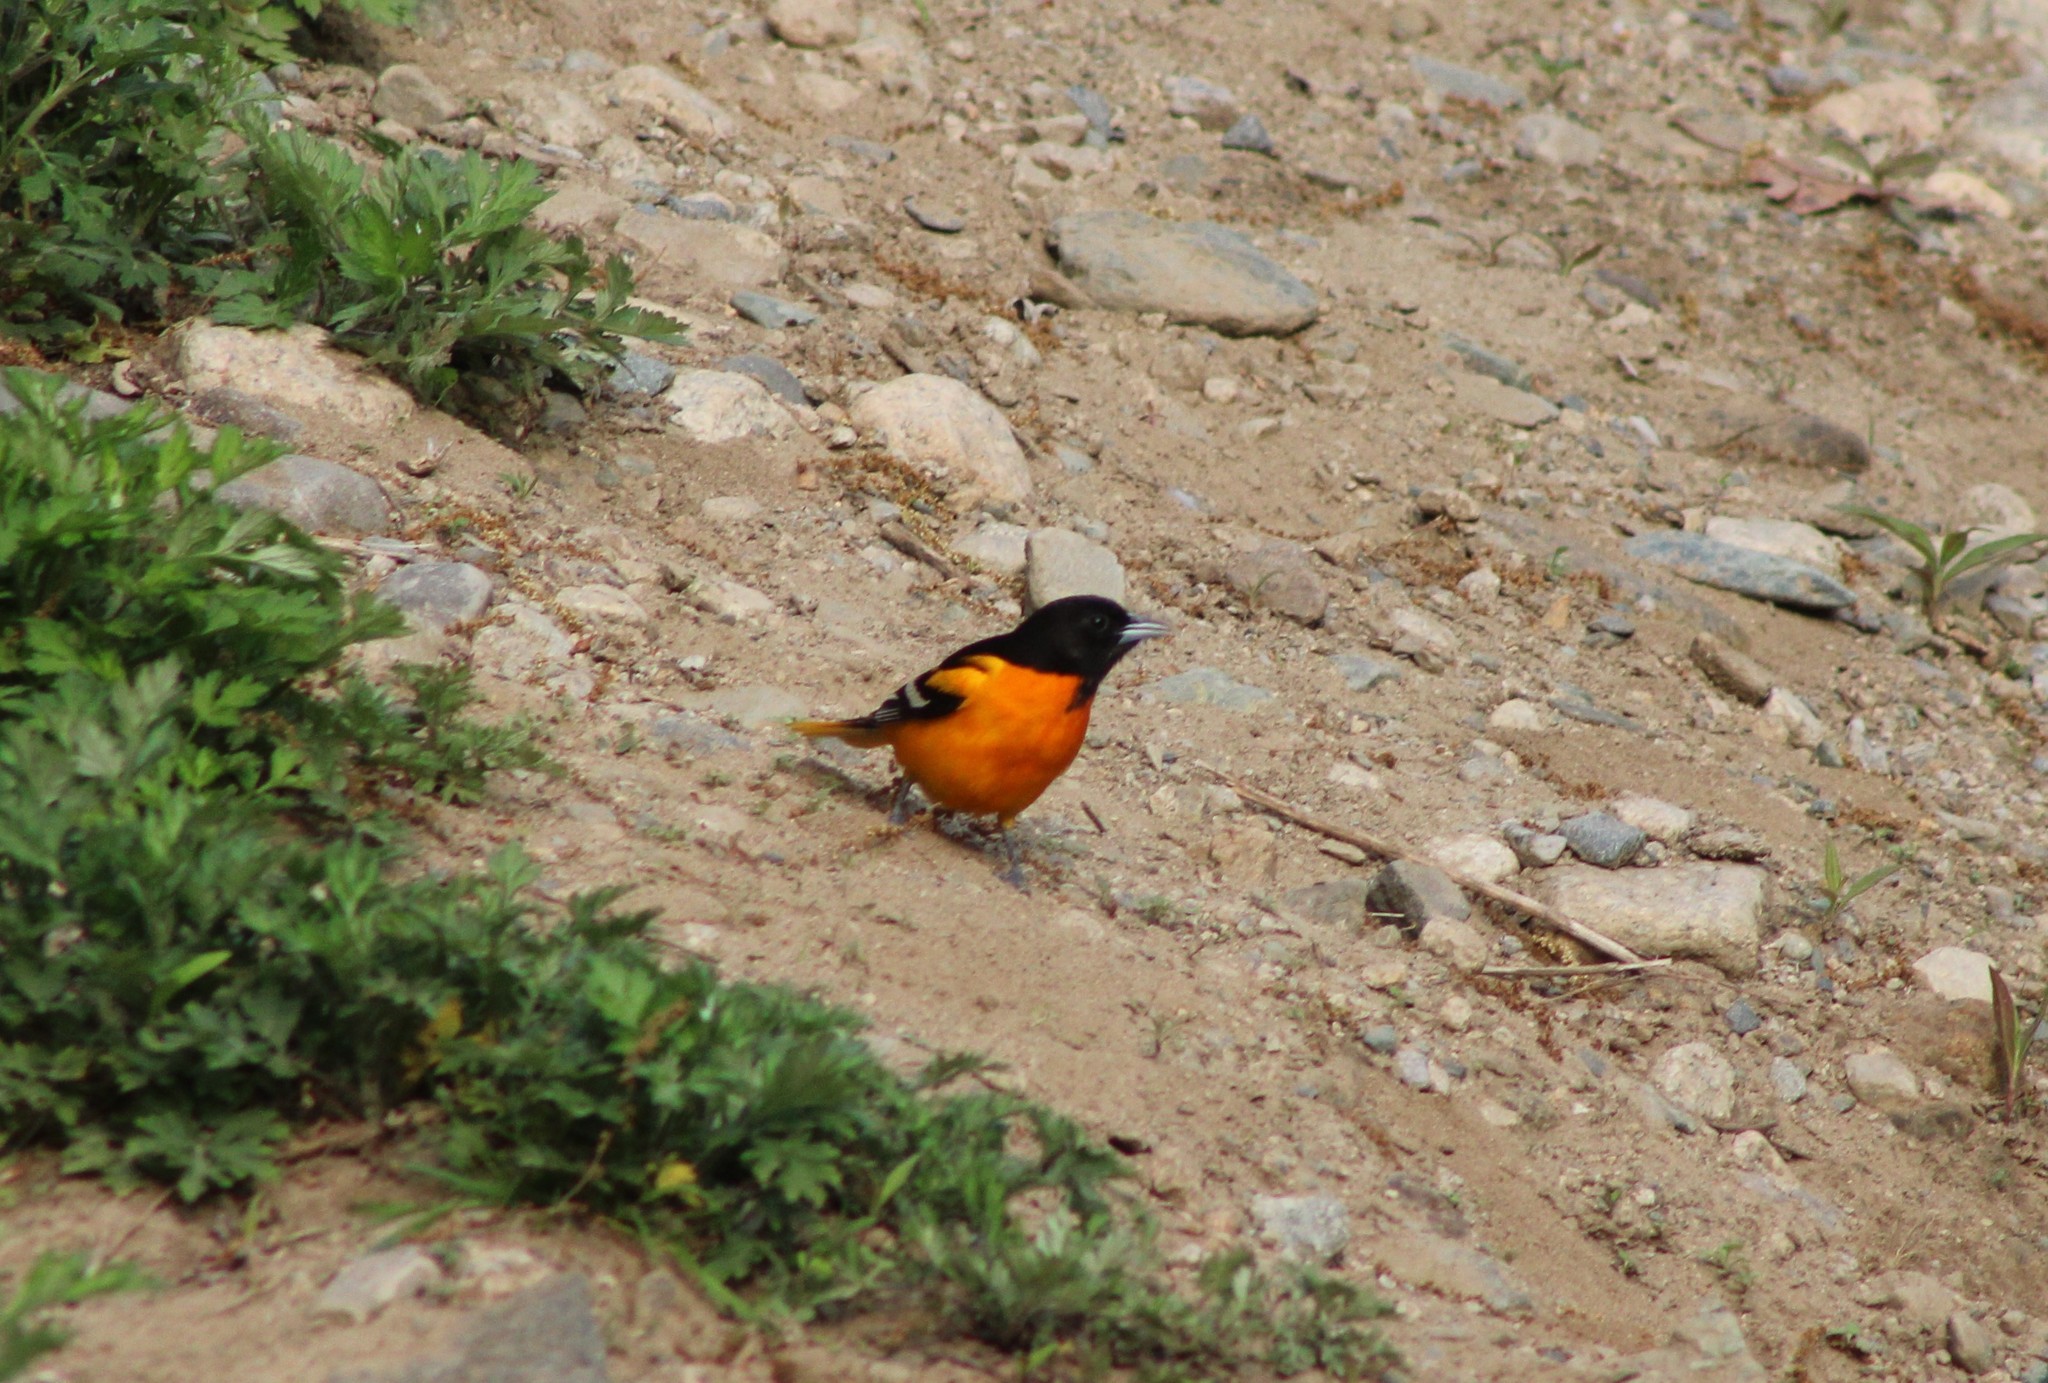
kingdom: Animalia
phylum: Chordata
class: Aves
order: Passeriformes
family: Icteridae
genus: Icterus
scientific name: Icterus galbula
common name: Baltimore oriole
